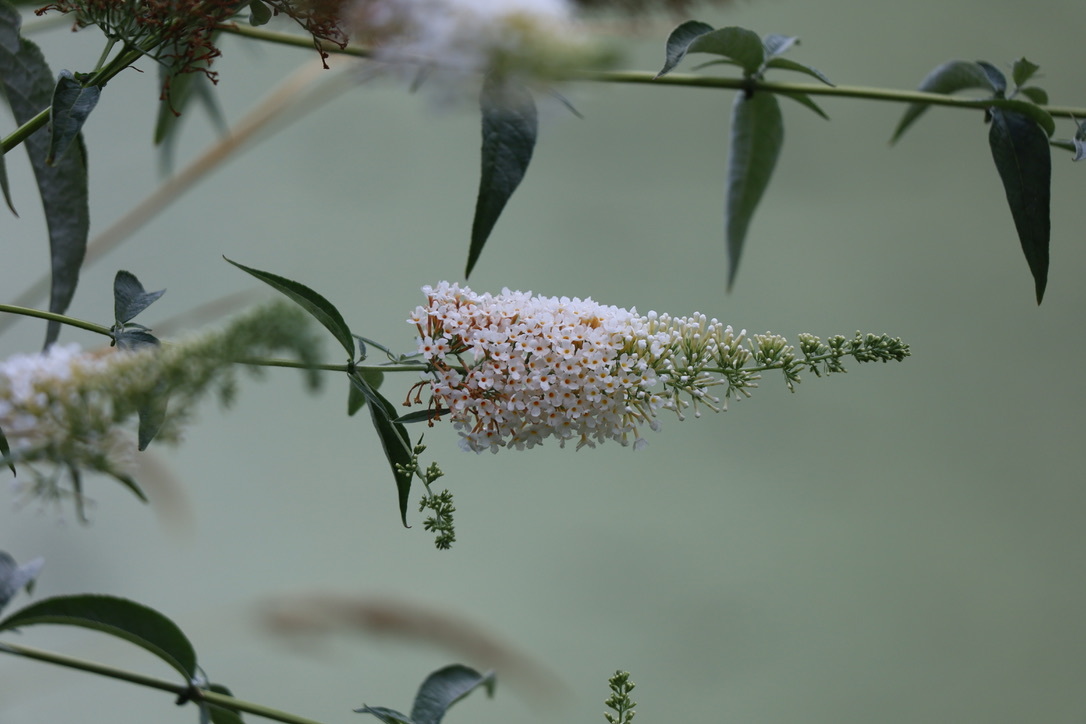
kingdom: Plantae
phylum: Tracheophyta
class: Magnoliopsida
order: Lamiales
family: Scrophulariaceae
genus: Buddleja
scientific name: Buddleja davidii
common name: Butterfly-bush
